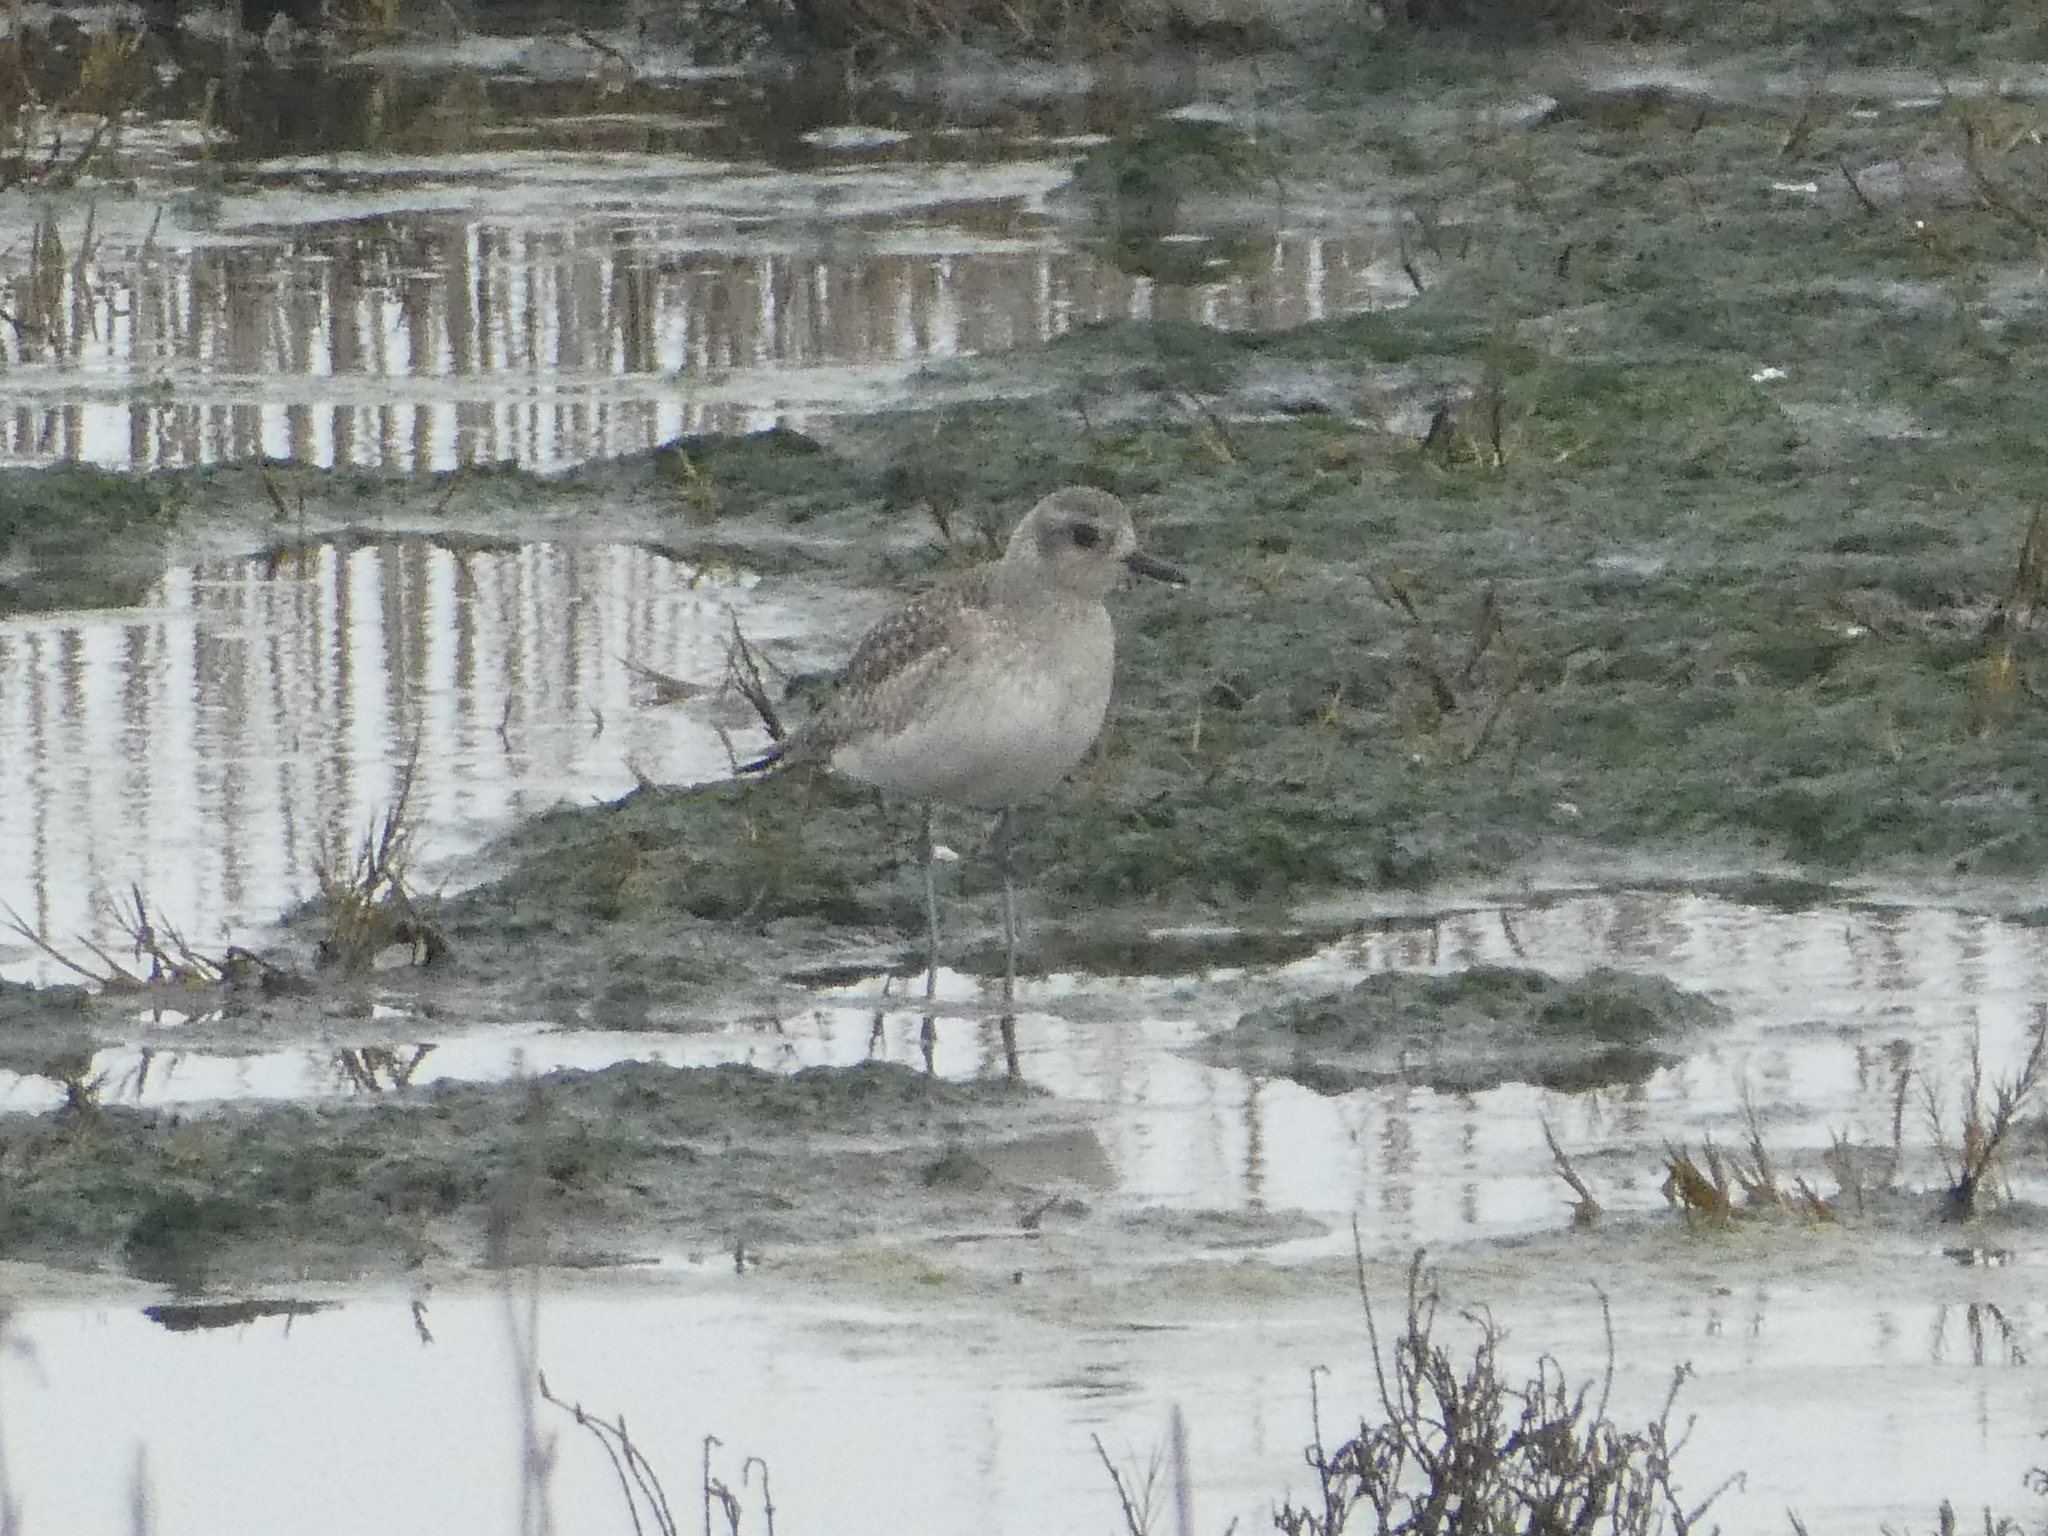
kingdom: Animalia
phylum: Chordata
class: Aves
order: Charadriiformes
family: Charadriidae
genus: Pluvialis
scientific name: Pluvialis squatarola
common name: Grey plover
